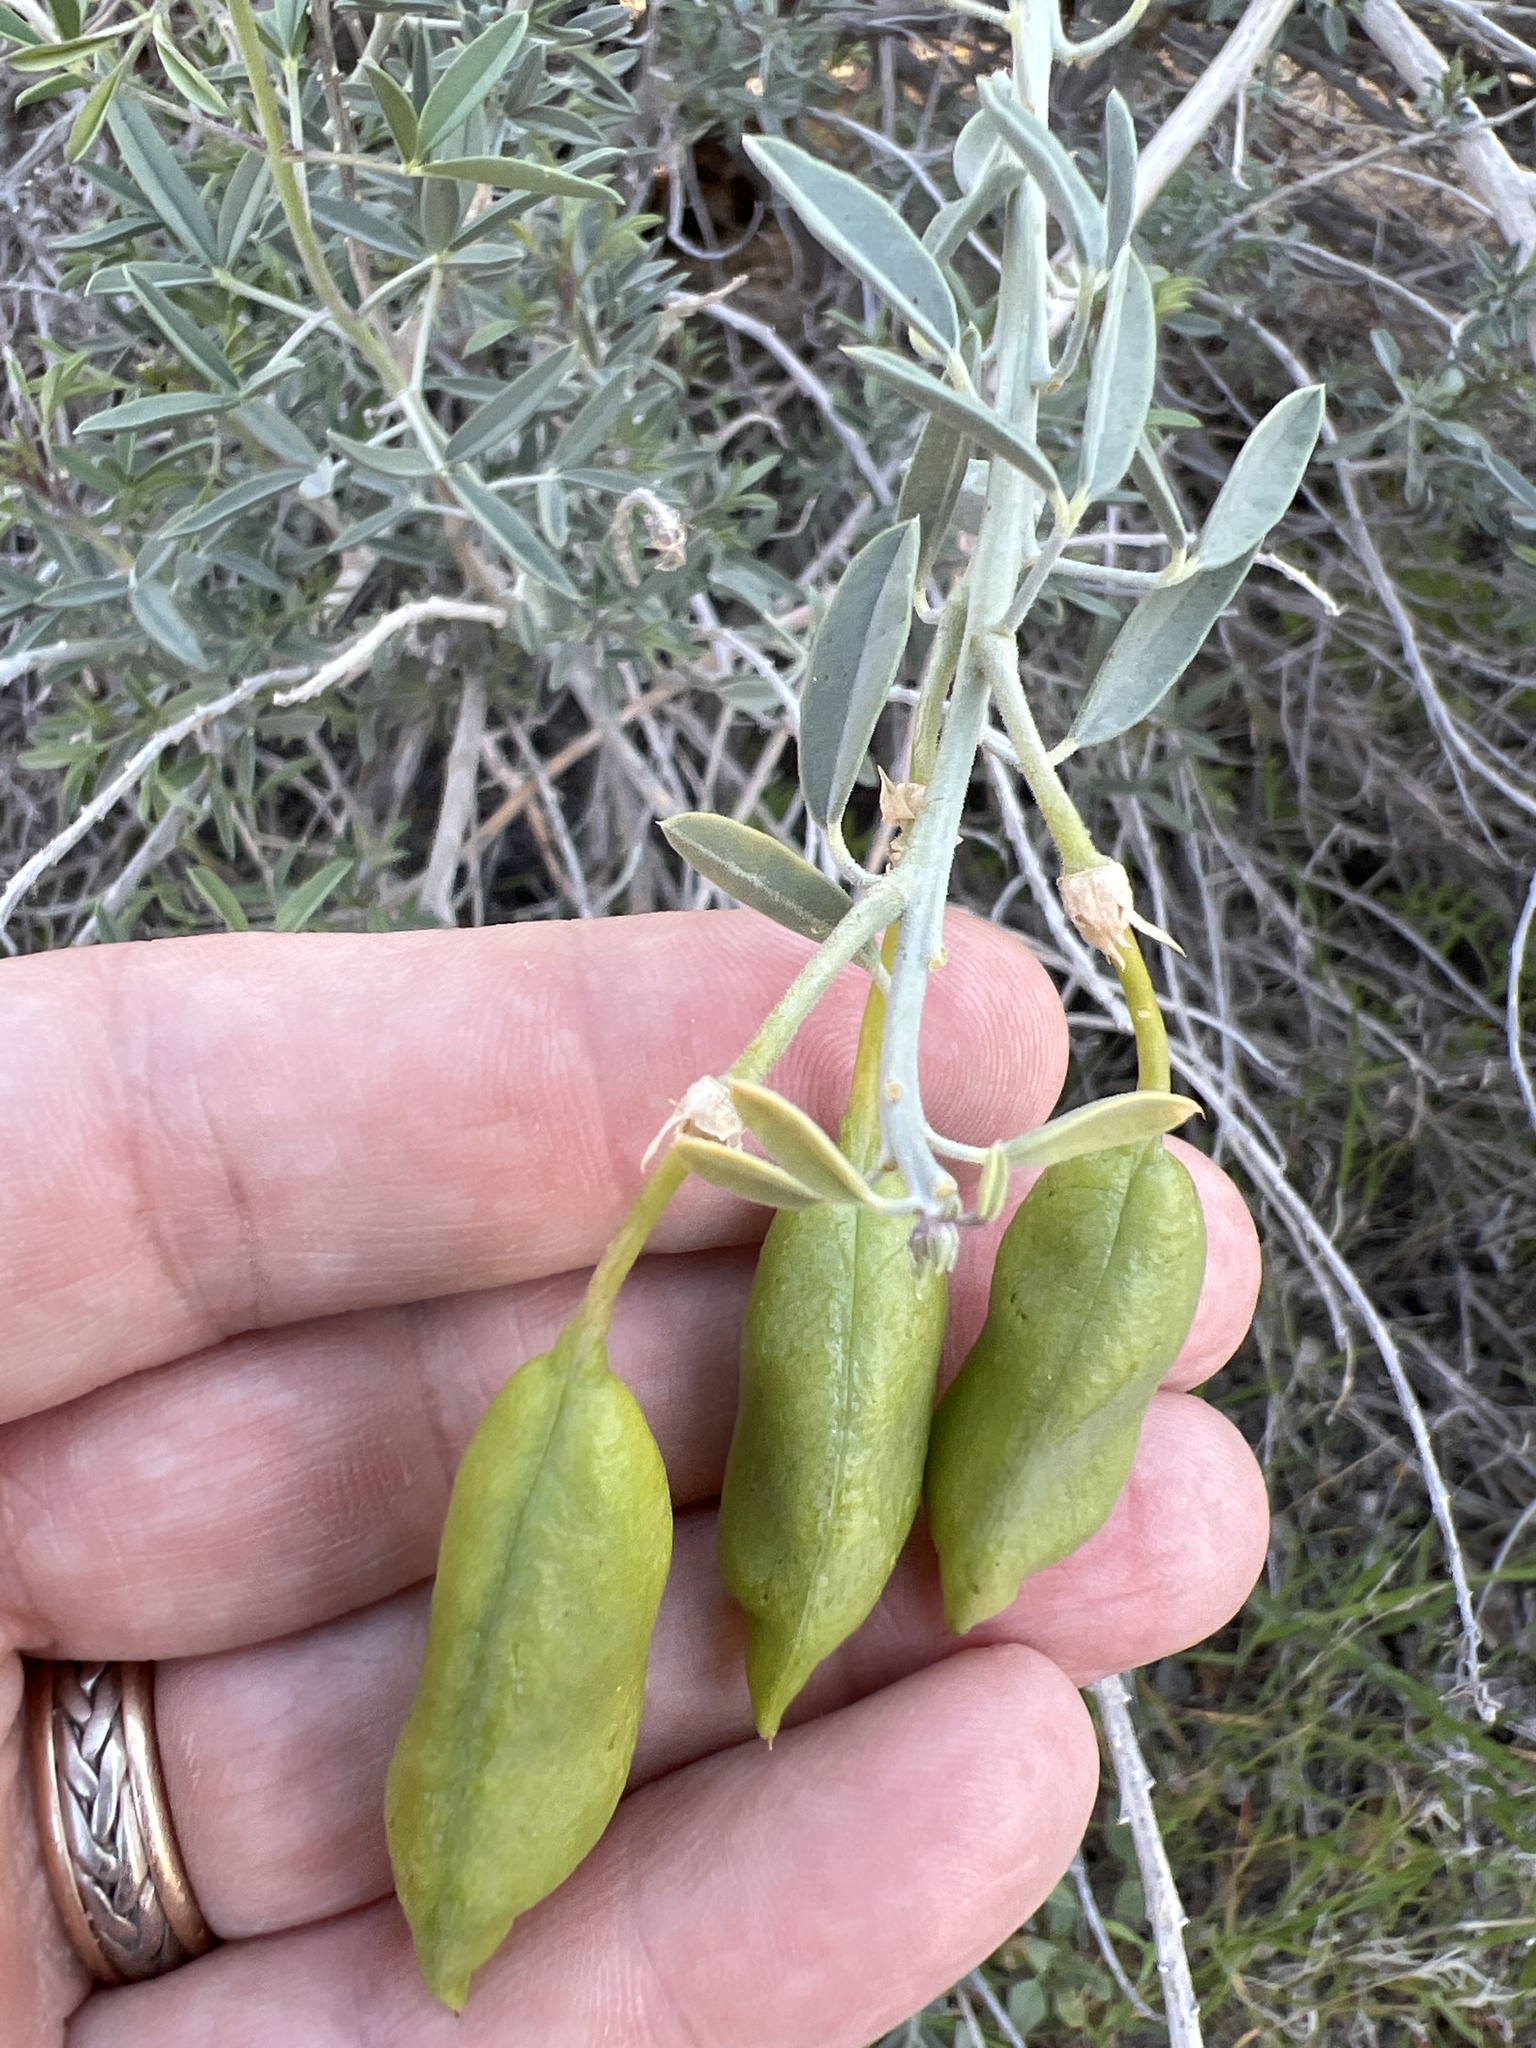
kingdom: Plantae
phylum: Tracheophyta
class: Magnoliopsida
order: Brassicales
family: Cleomaceae
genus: Cleomella
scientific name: Cleomella arborea
